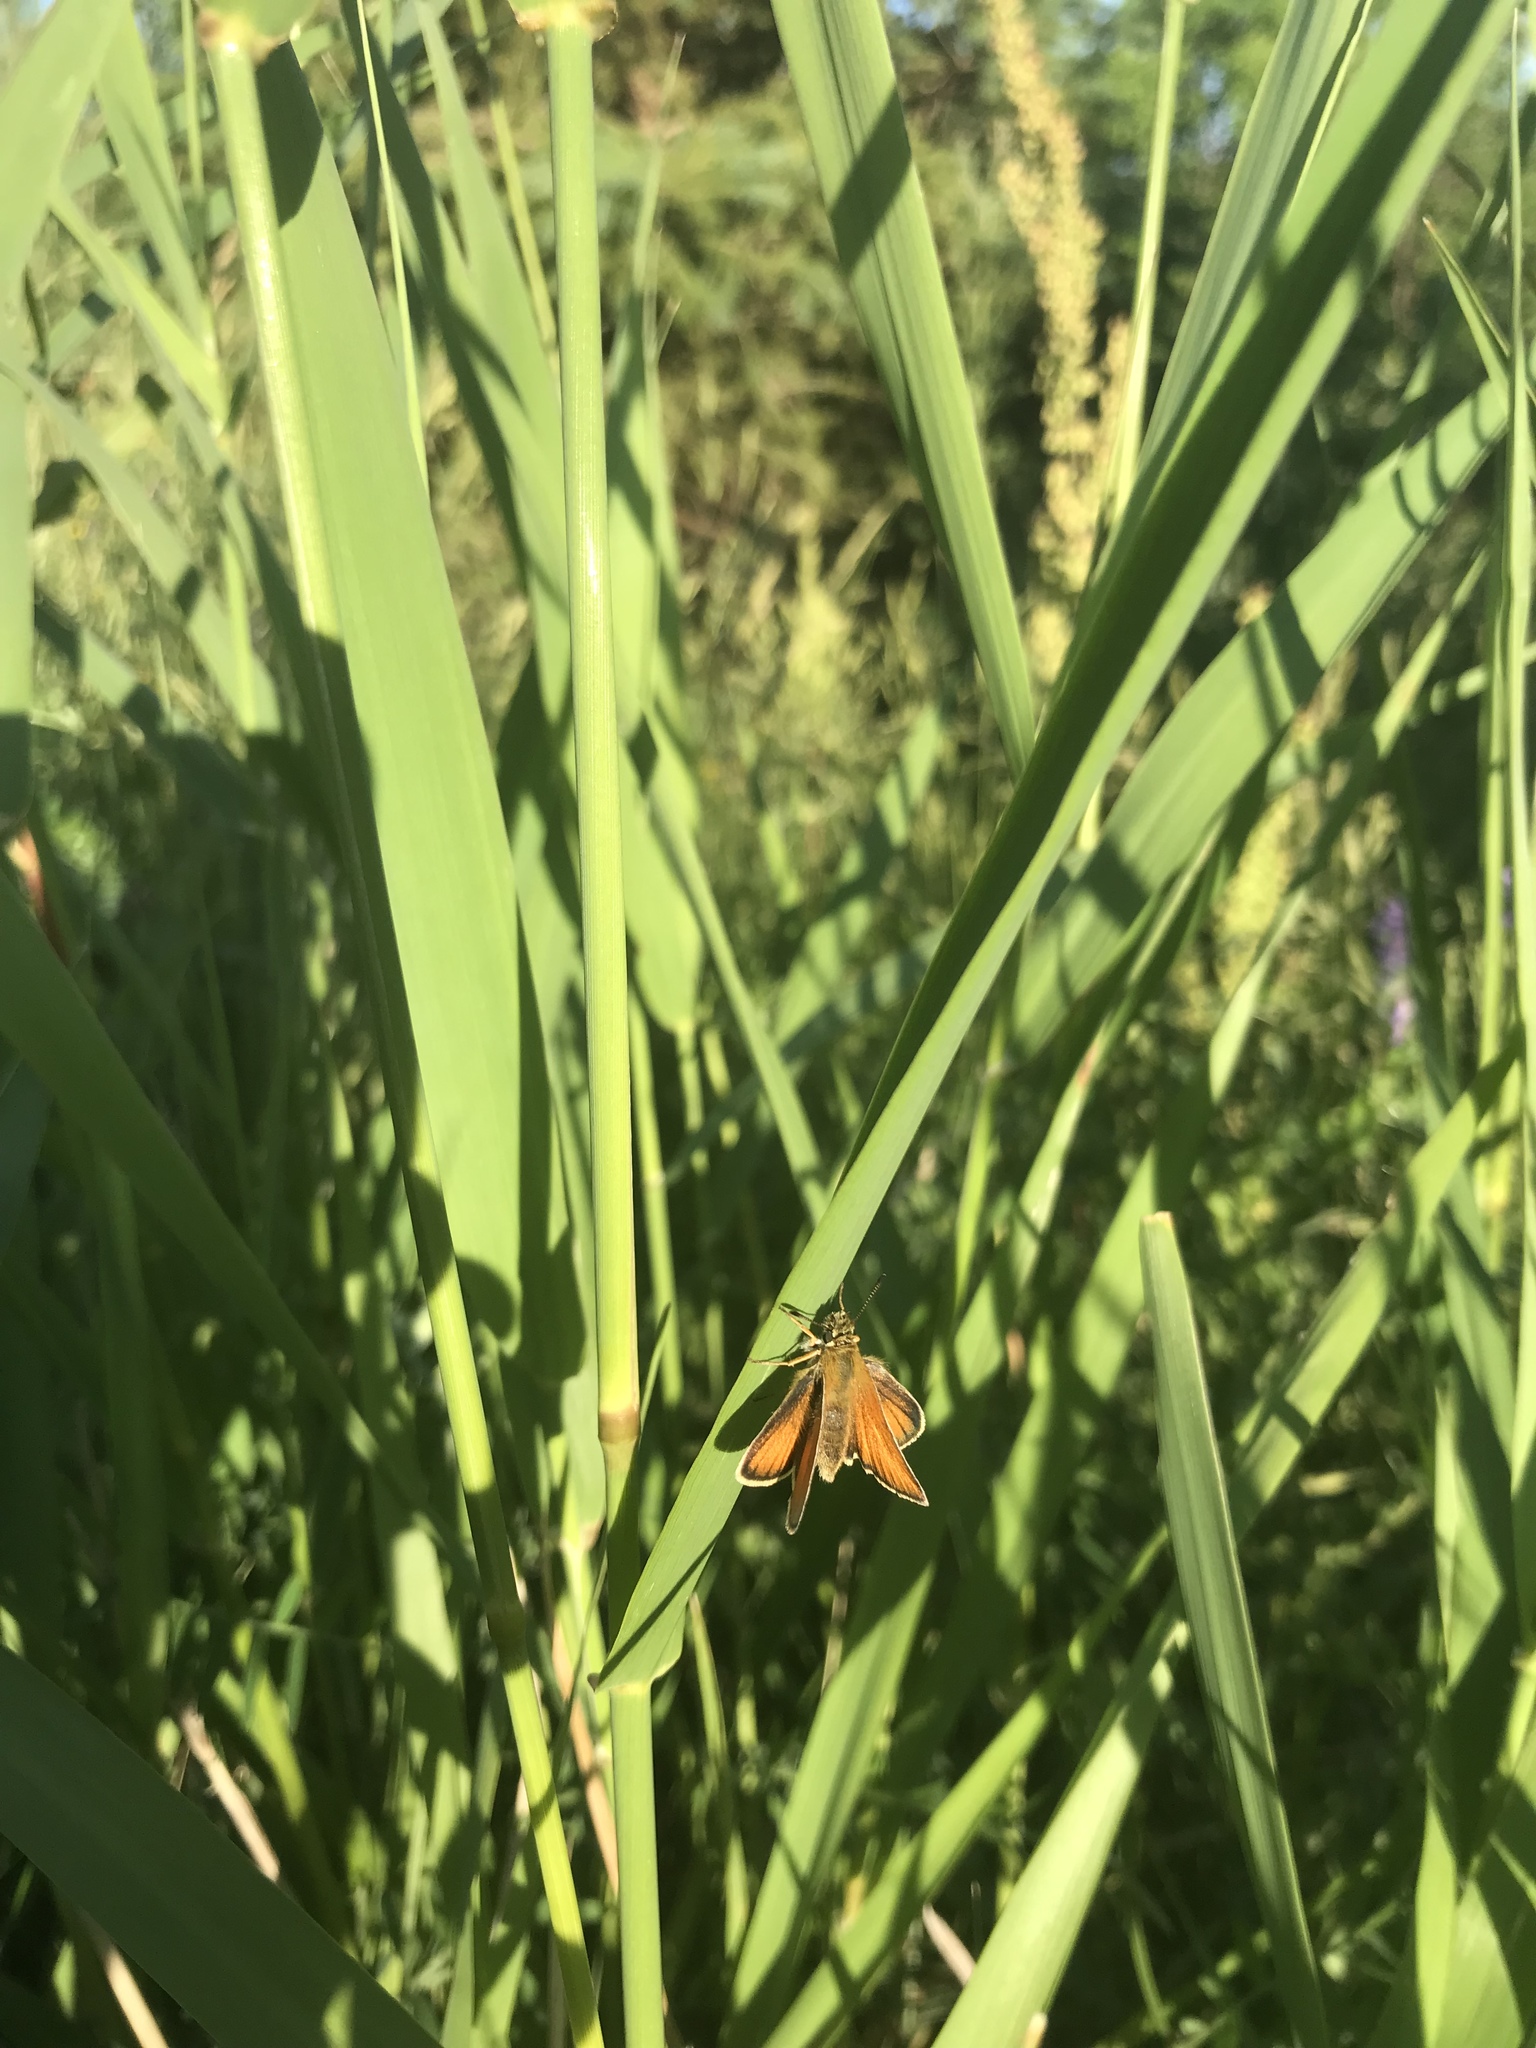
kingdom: Animalia
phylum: Arthropoda
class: Insecta
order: Lepidoptera
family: Hesperiidae
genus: Thymelicus
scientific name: Thymelicus lineola
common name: Essex skipper
